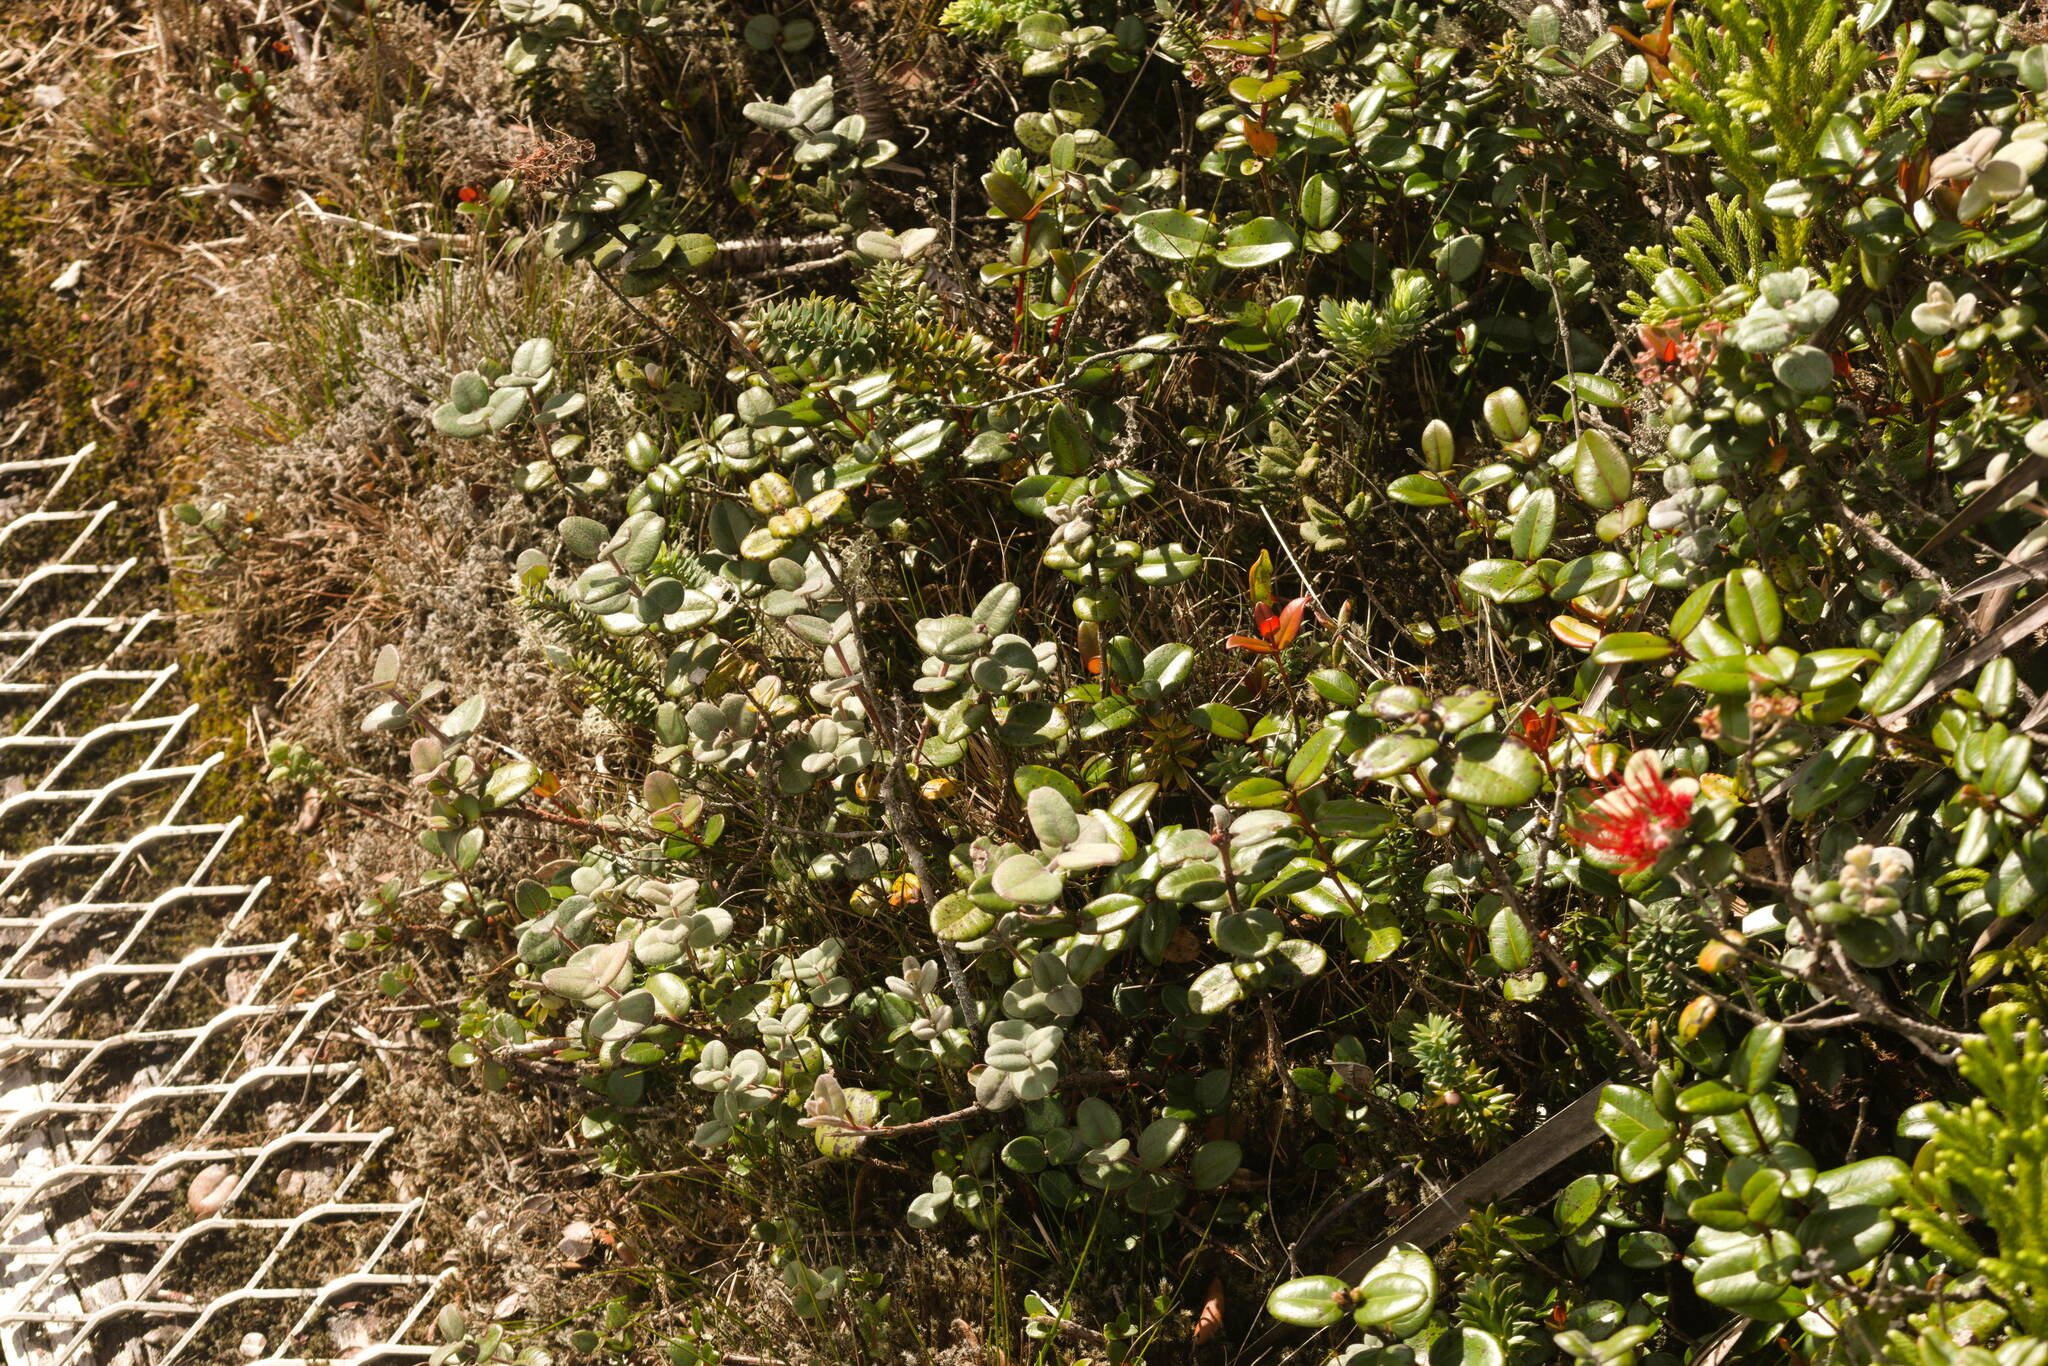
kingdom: Plantae
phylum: Tracheophyta
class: Magnoliopsida
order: Myrtales
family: Myrtaceae
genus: Metrosideros
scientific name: Metrosideros polymorpha
